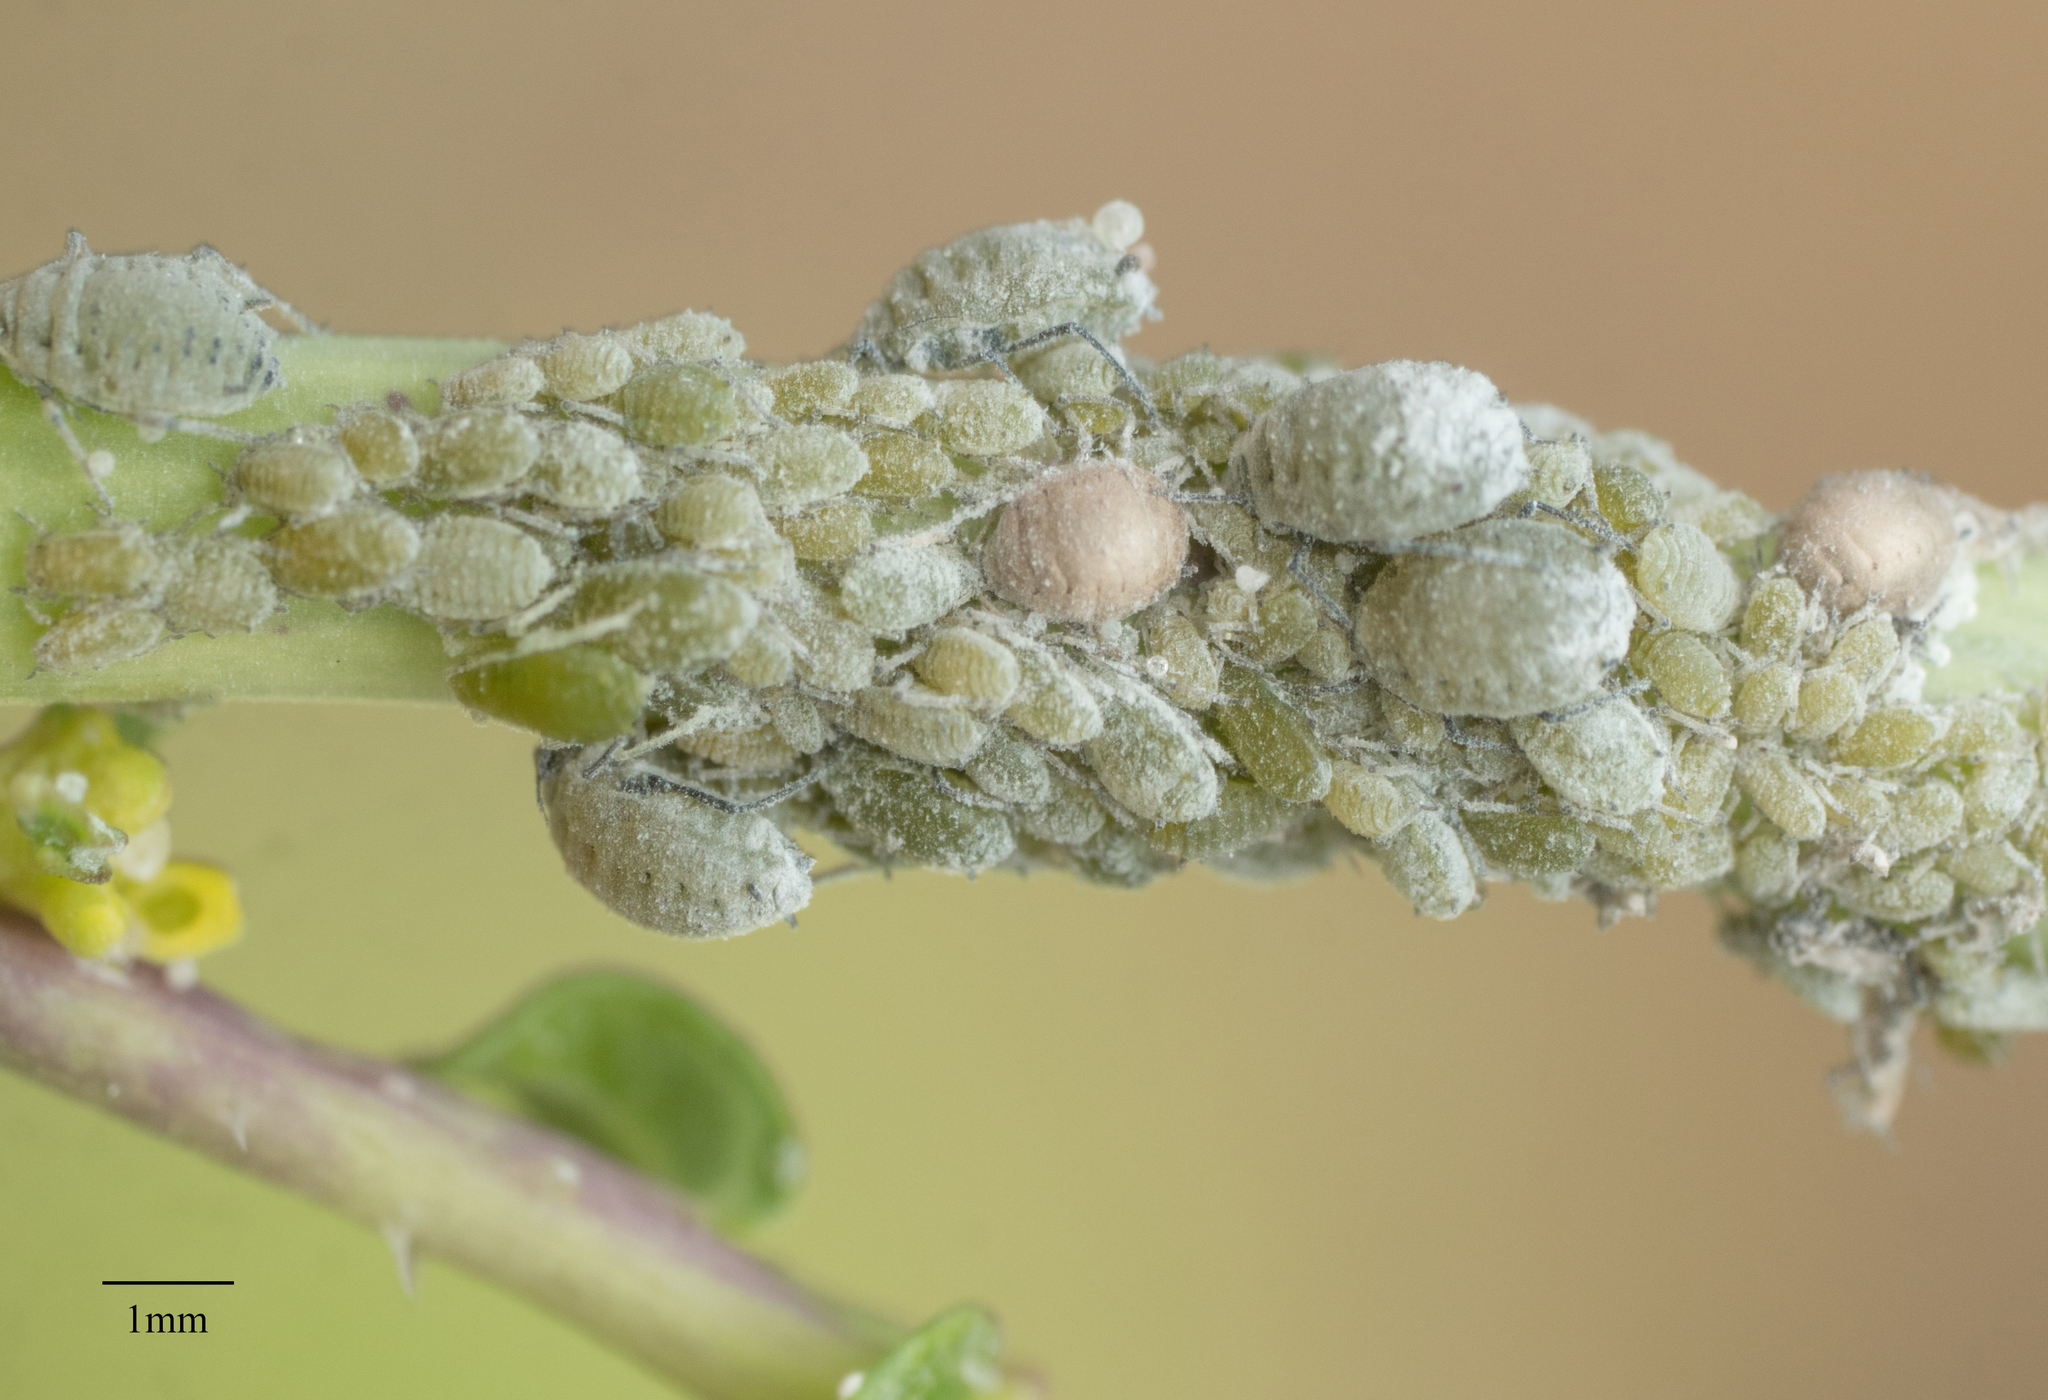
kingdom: Animalia
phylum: Arthropoda
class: Insecta
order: Hemiptera
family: Aphididae
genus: Brevicoryne
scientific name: Brevicoryne brassicae
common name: Cabbage aphid
